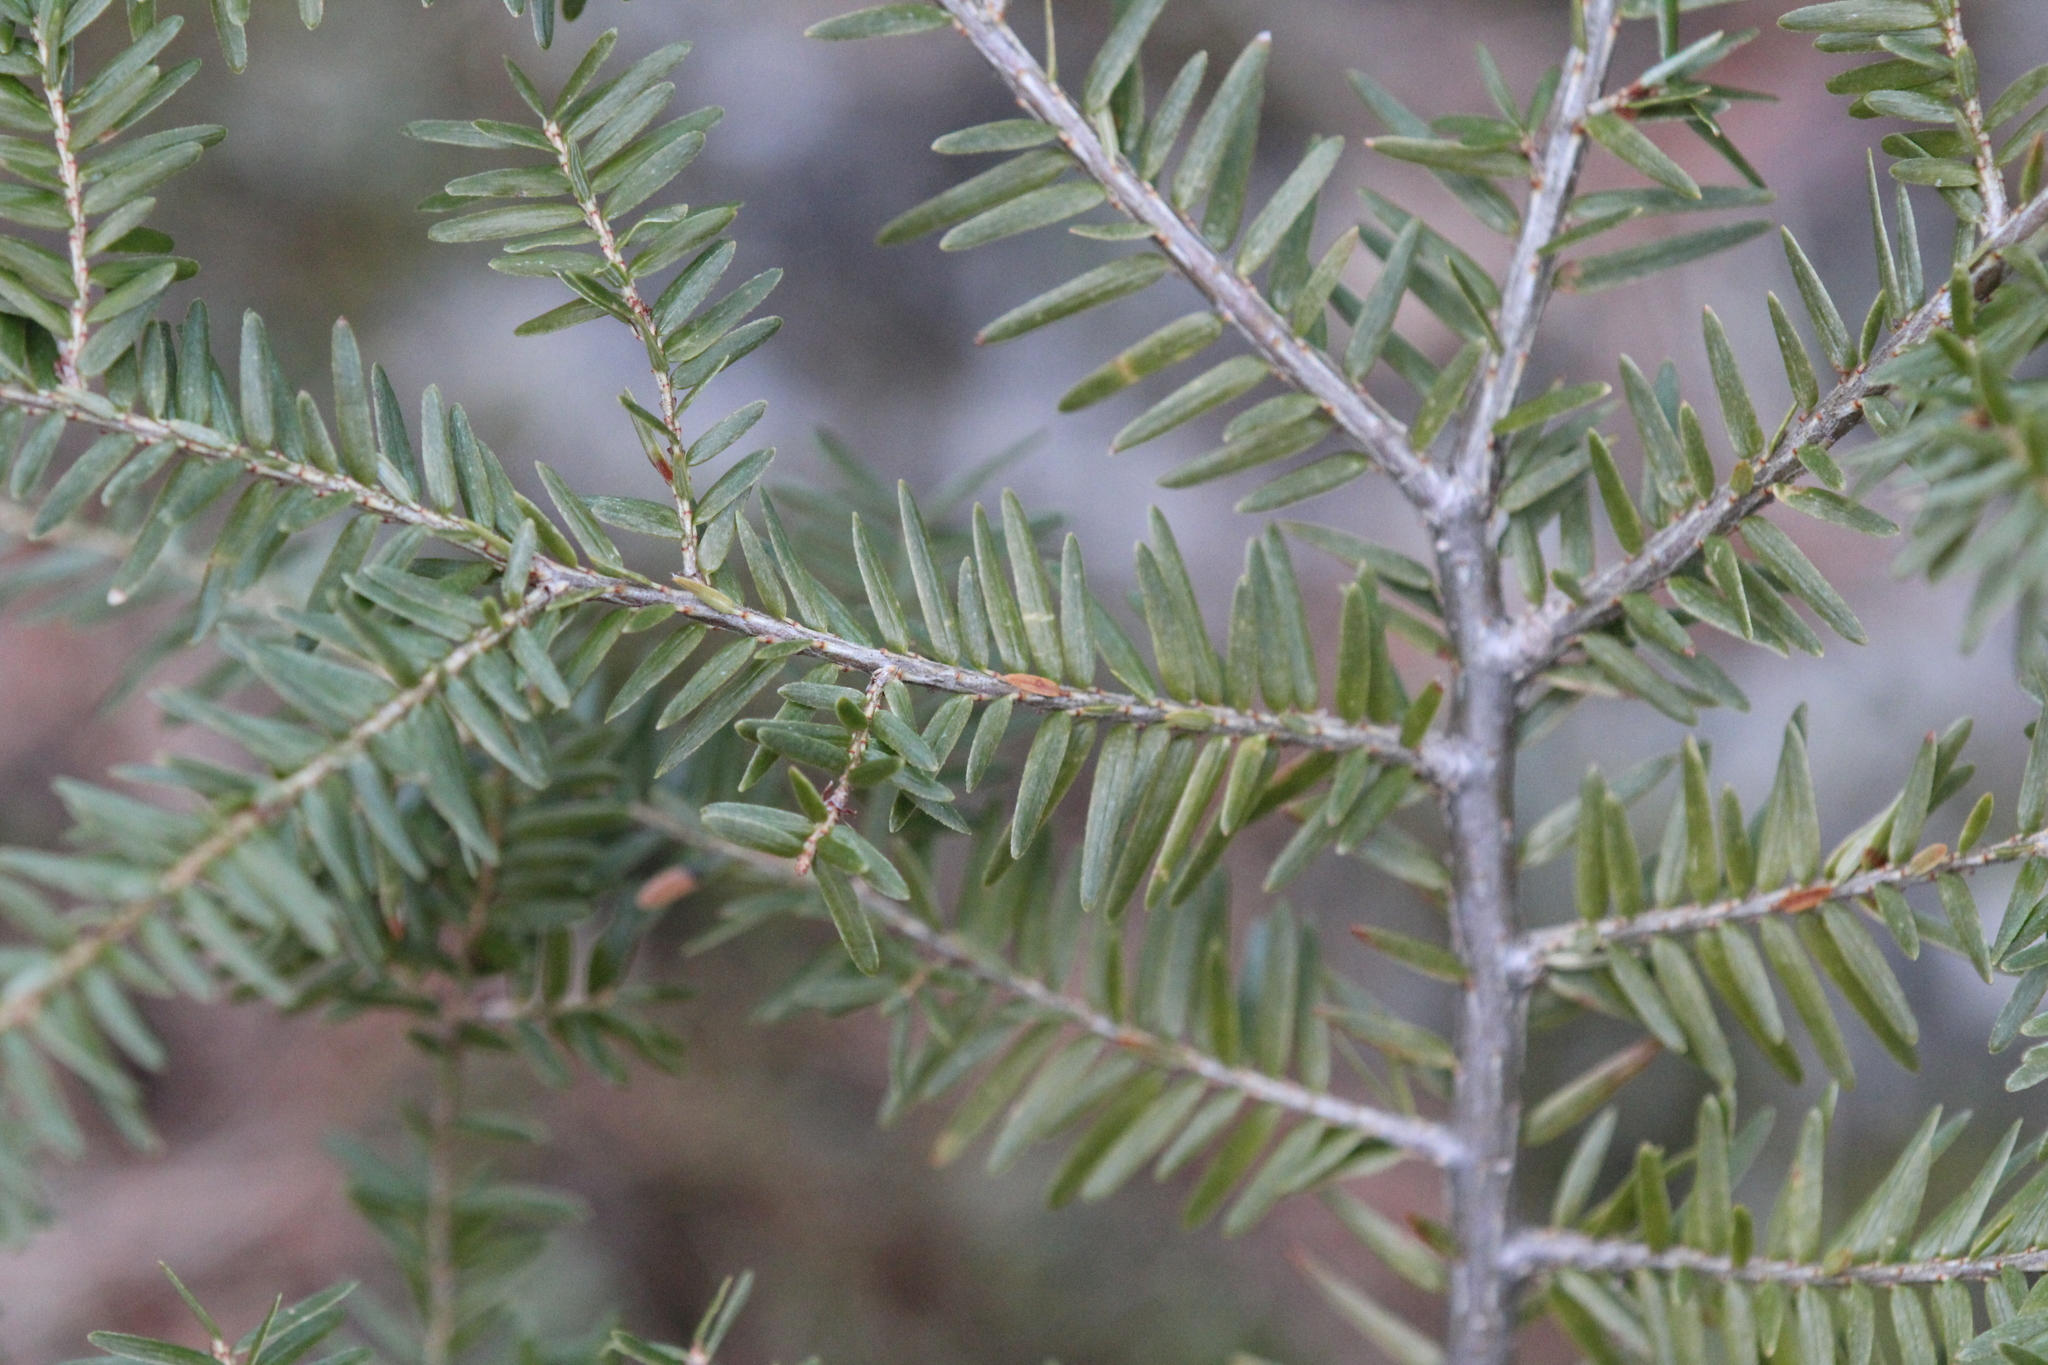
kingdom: Plantae
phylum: Tracheophyta
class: Pinopsida
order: Pinales
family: Pinaceae
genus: Tsuga
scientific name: Tsuga canadensis
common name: Eastern hemlock
